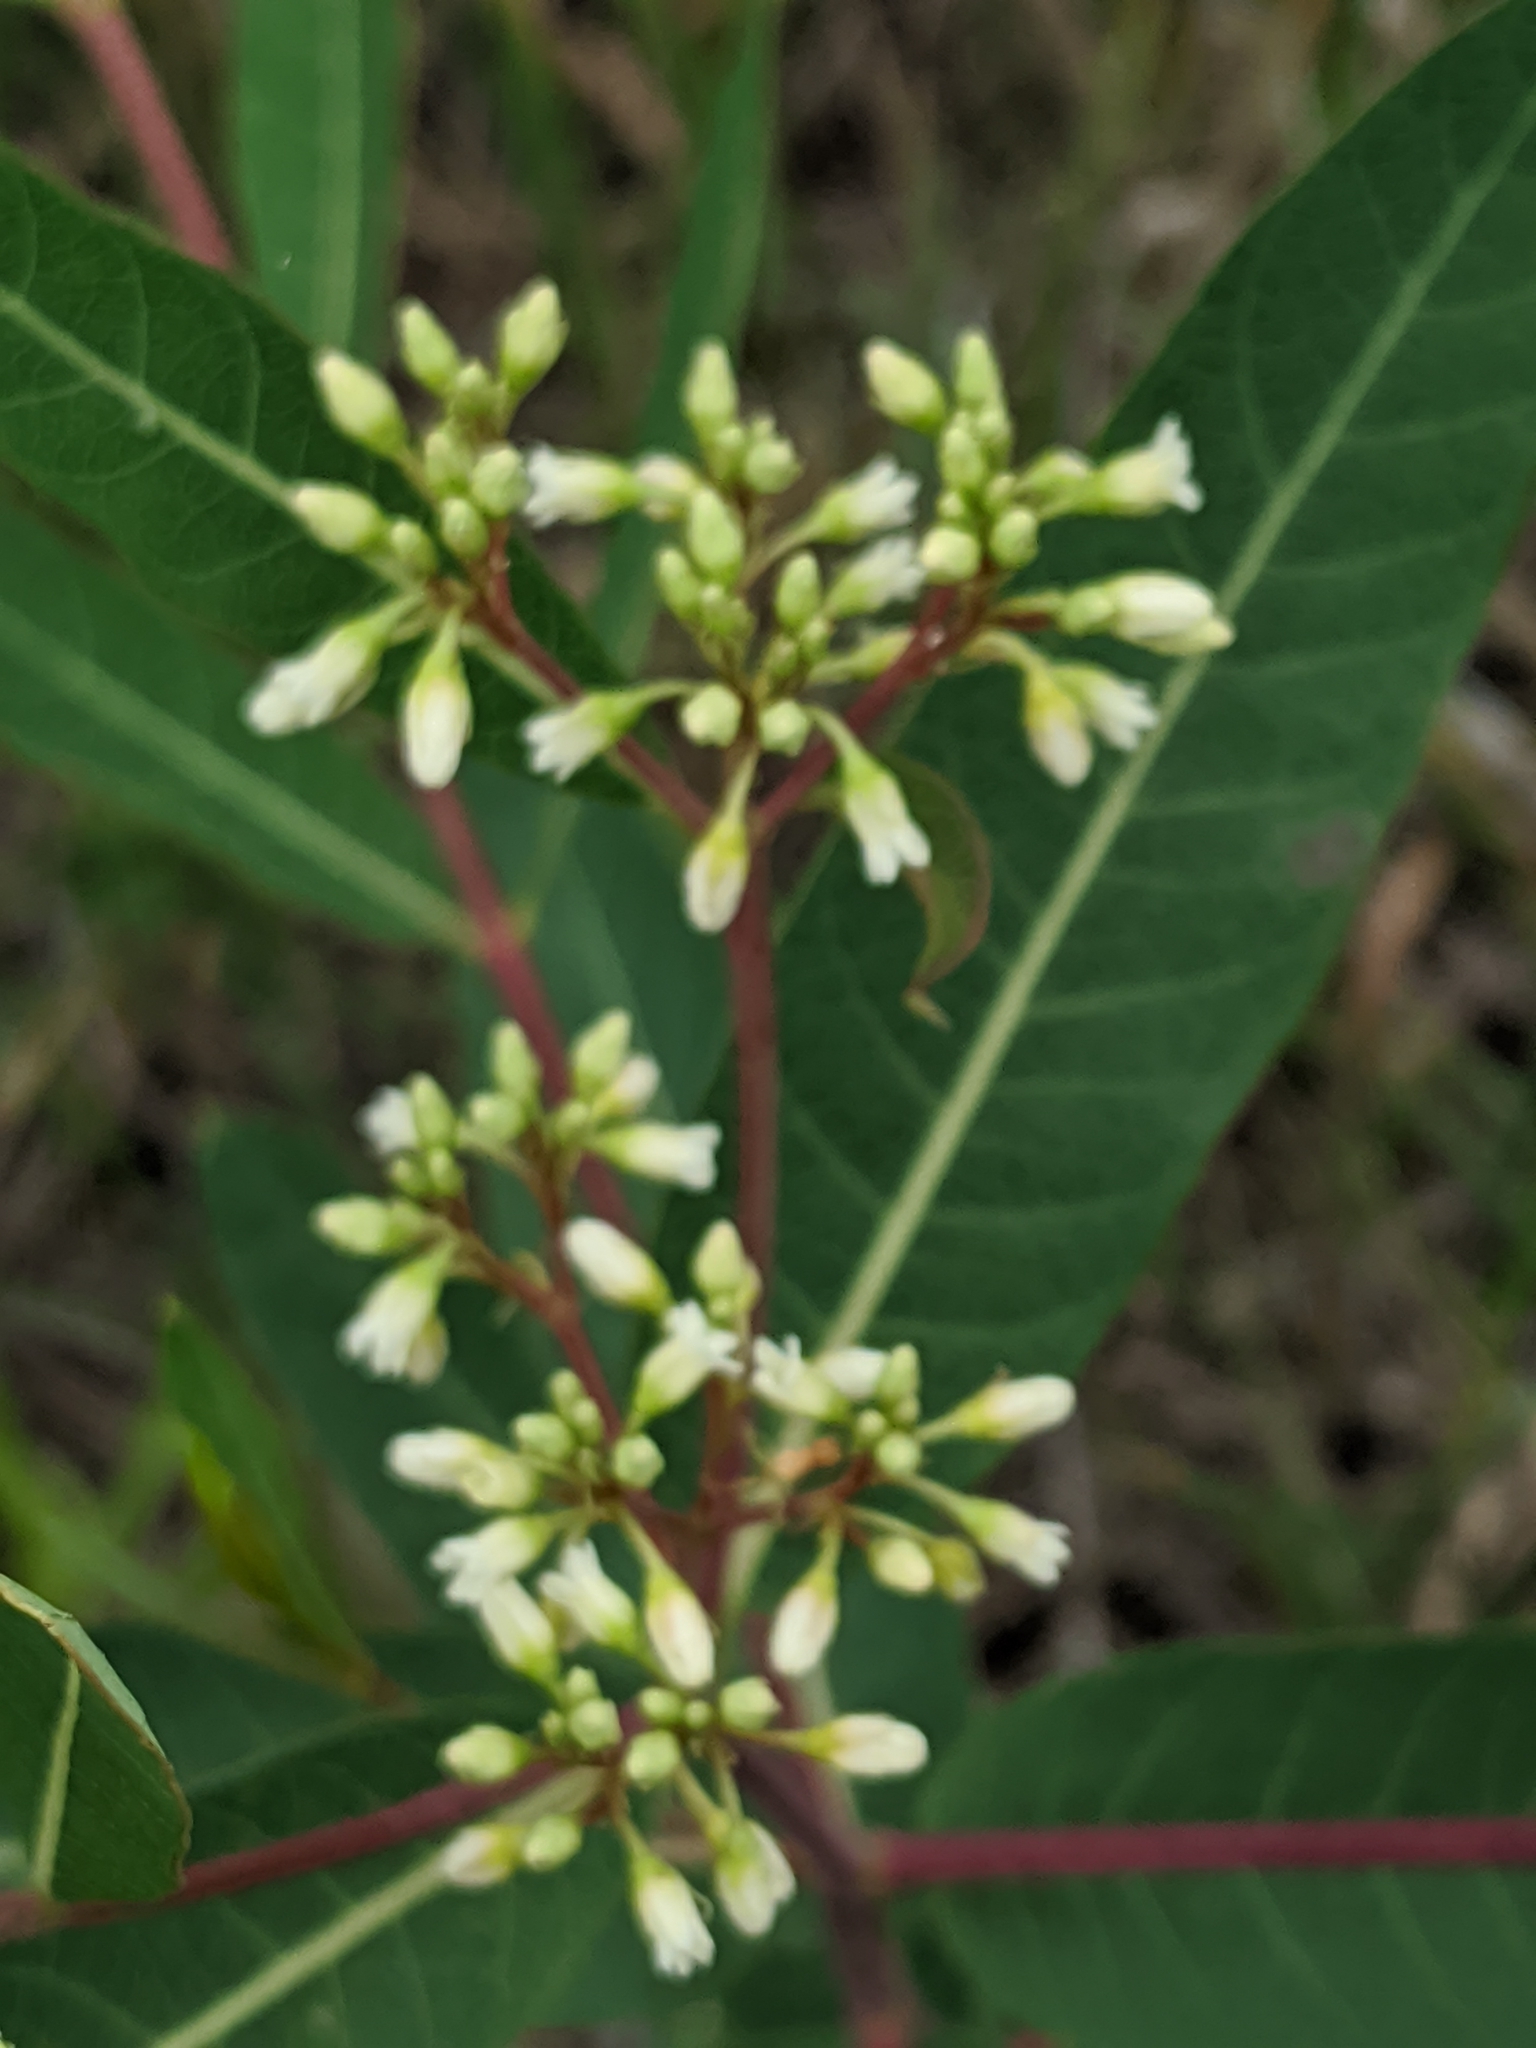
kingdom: Plantae
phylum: Tracheophyta
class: Magnoliopsida
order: Gentianales
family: Apocynaceae
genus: Apocynum
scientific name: Apocynum cannabinum
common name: Hemp dogbane
